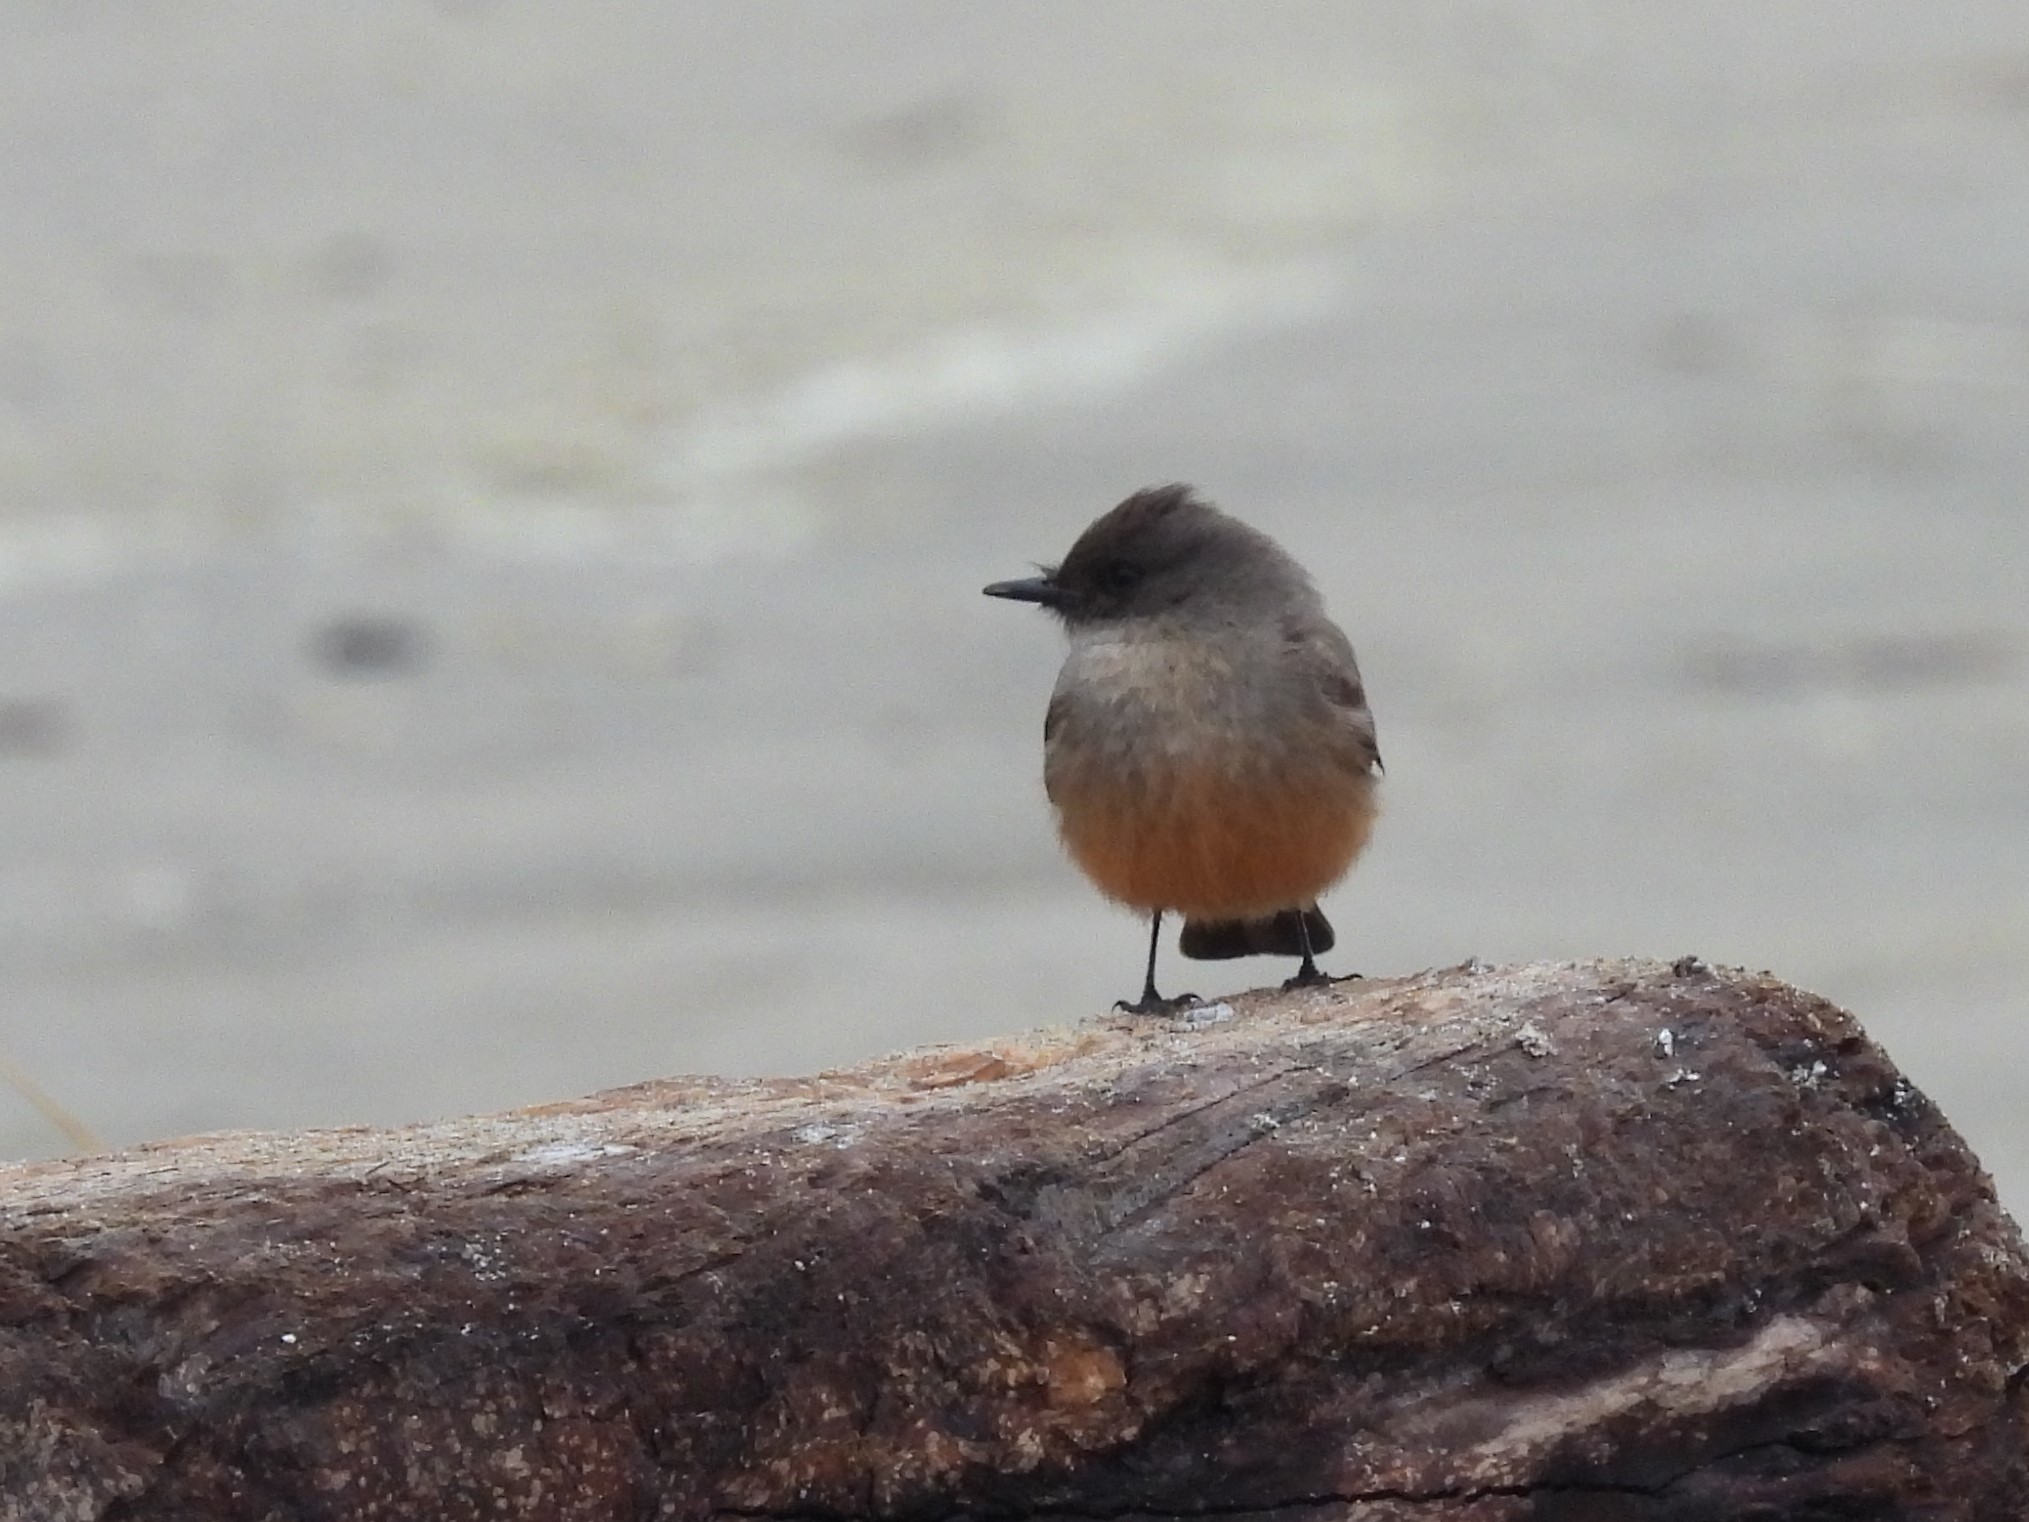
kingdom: Animalia
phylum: Chordata
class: Aves
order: Passeriformes
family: Tyrannidae
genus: Sayornis
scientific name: Sayornis saya
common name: Say's phoebe
